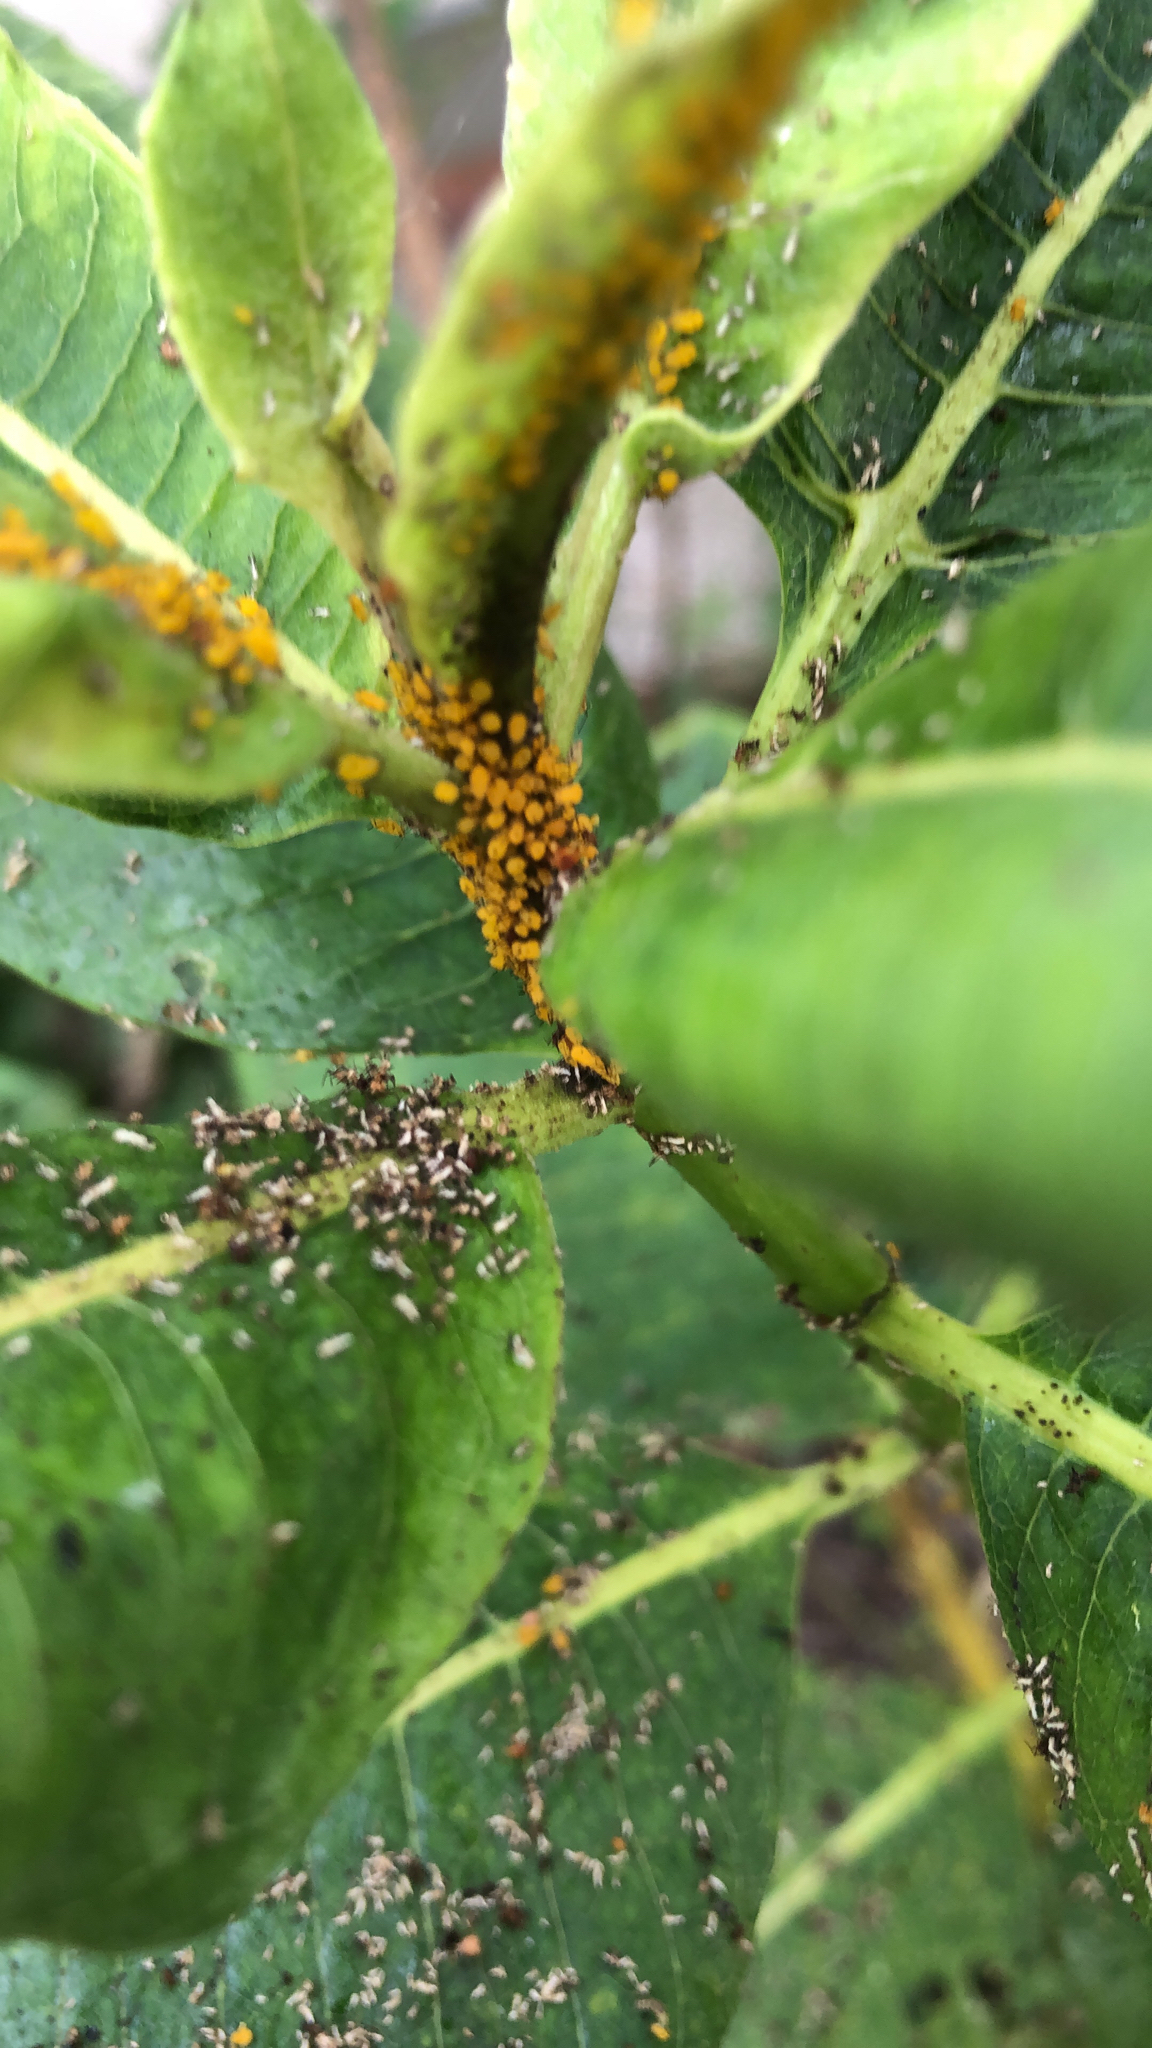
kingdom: Animalia
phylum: Arthropoda
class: Insecta
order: Hemiptera
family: Aphididae
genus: Aphis
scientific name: Aphis nerii
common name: Oleander aphid
